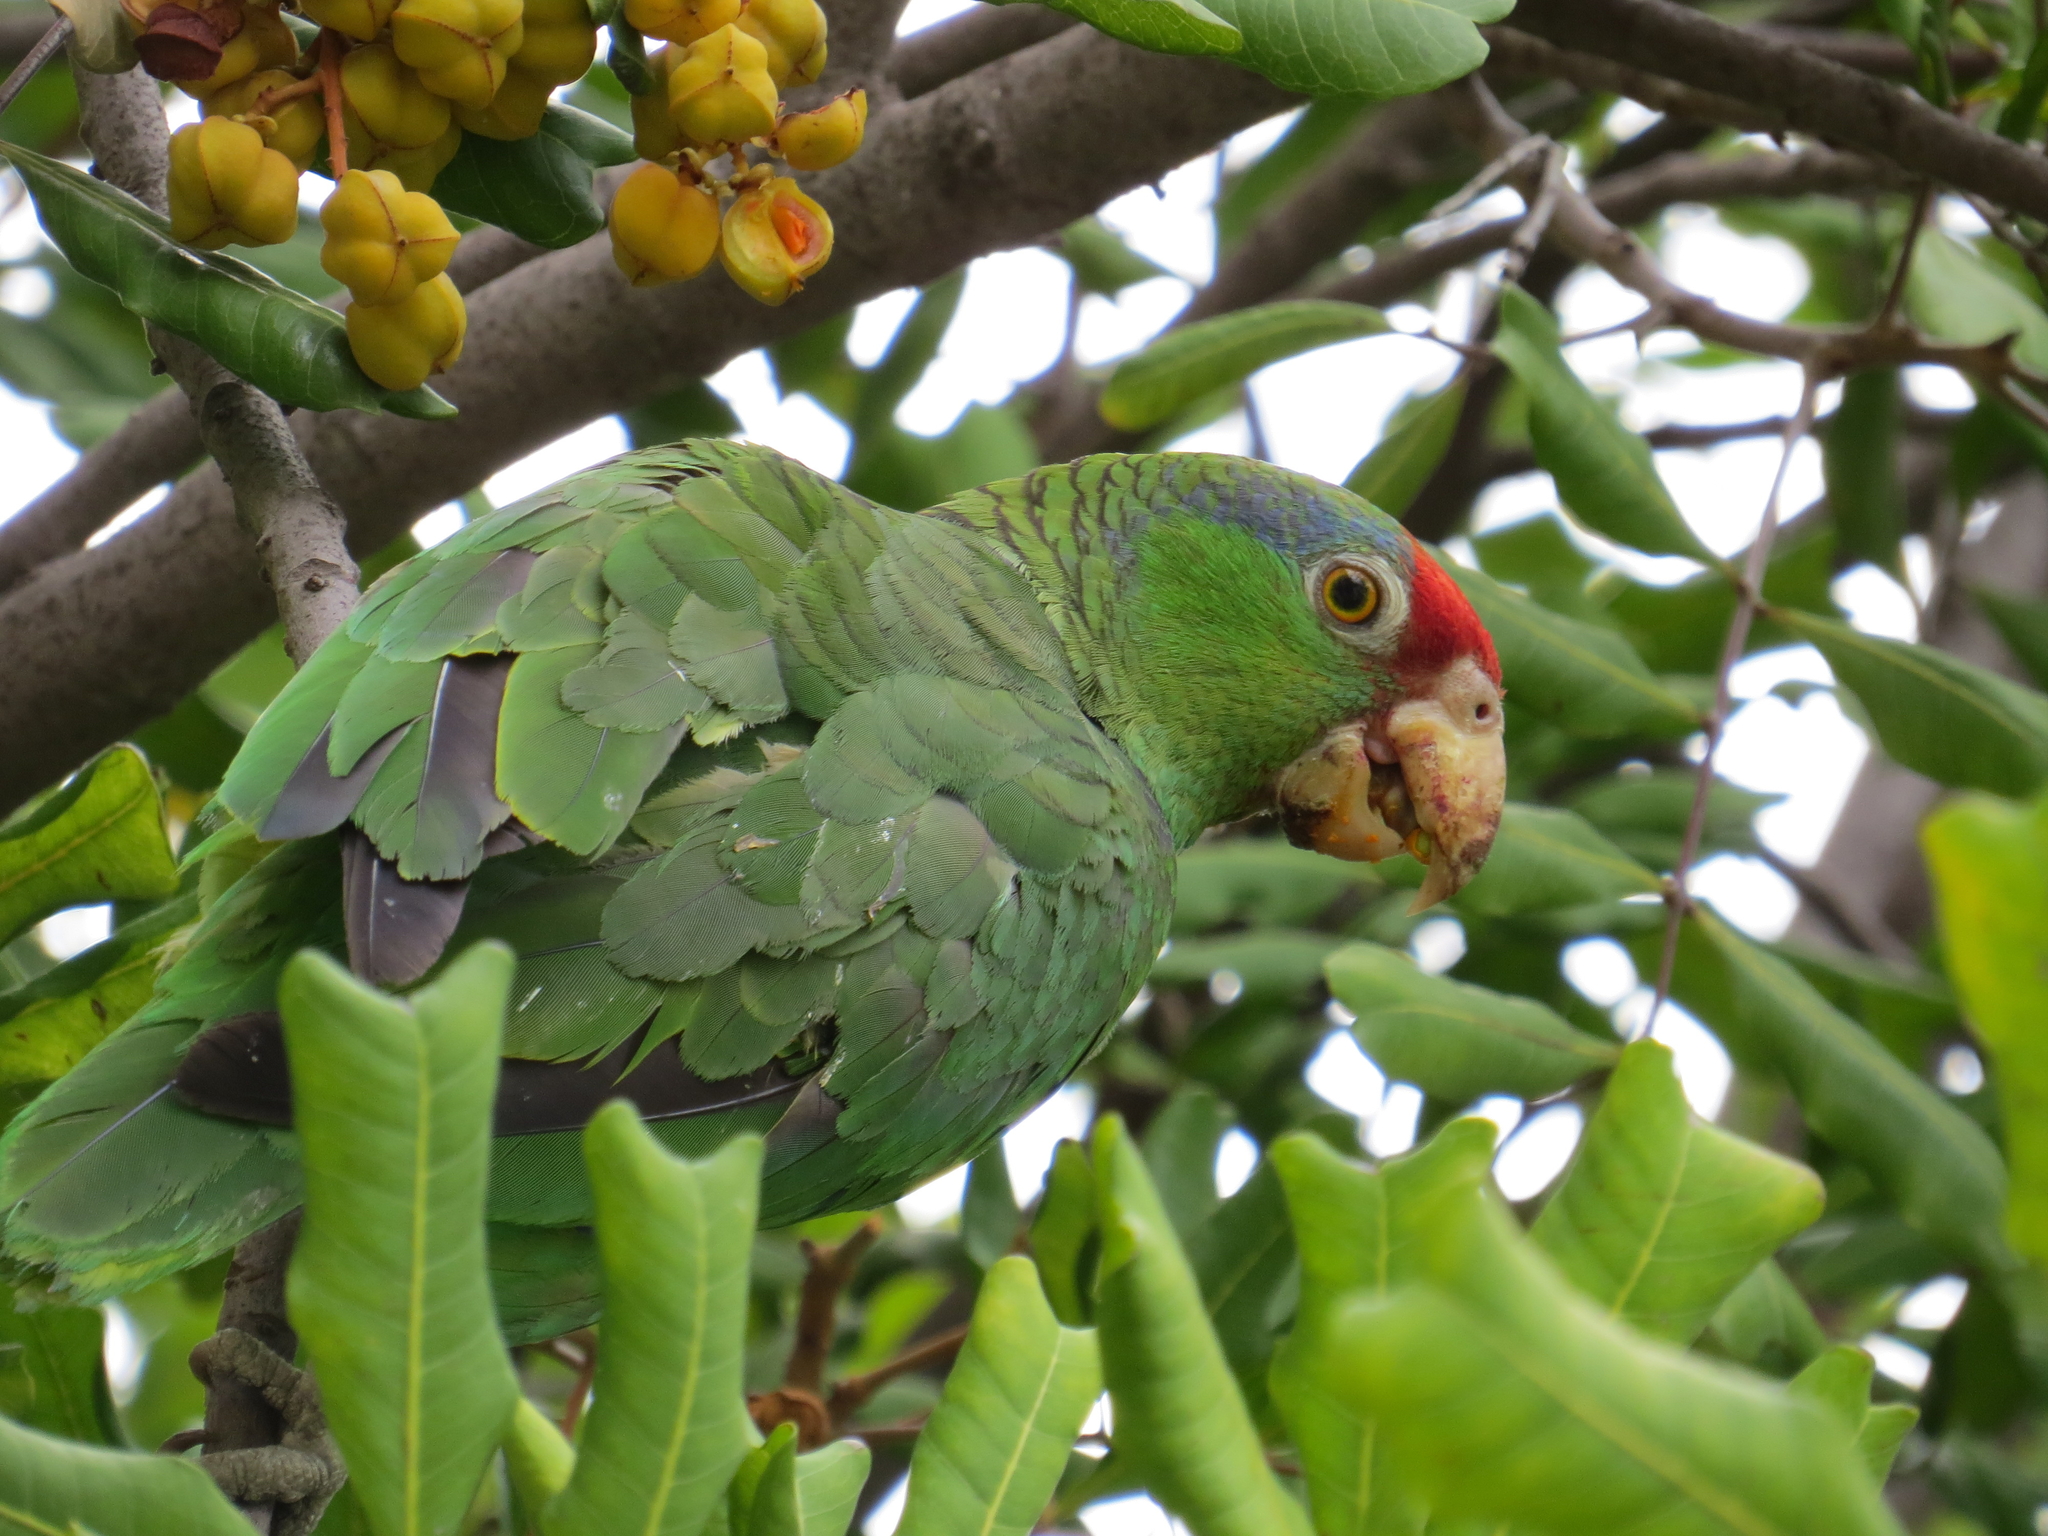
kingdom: Animalia
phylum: Chordata
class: Aves
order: Psittaciformes
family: Psittacidae
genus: Amazona
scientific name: Amazona viridigenalis
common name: Red-crowned amazon
